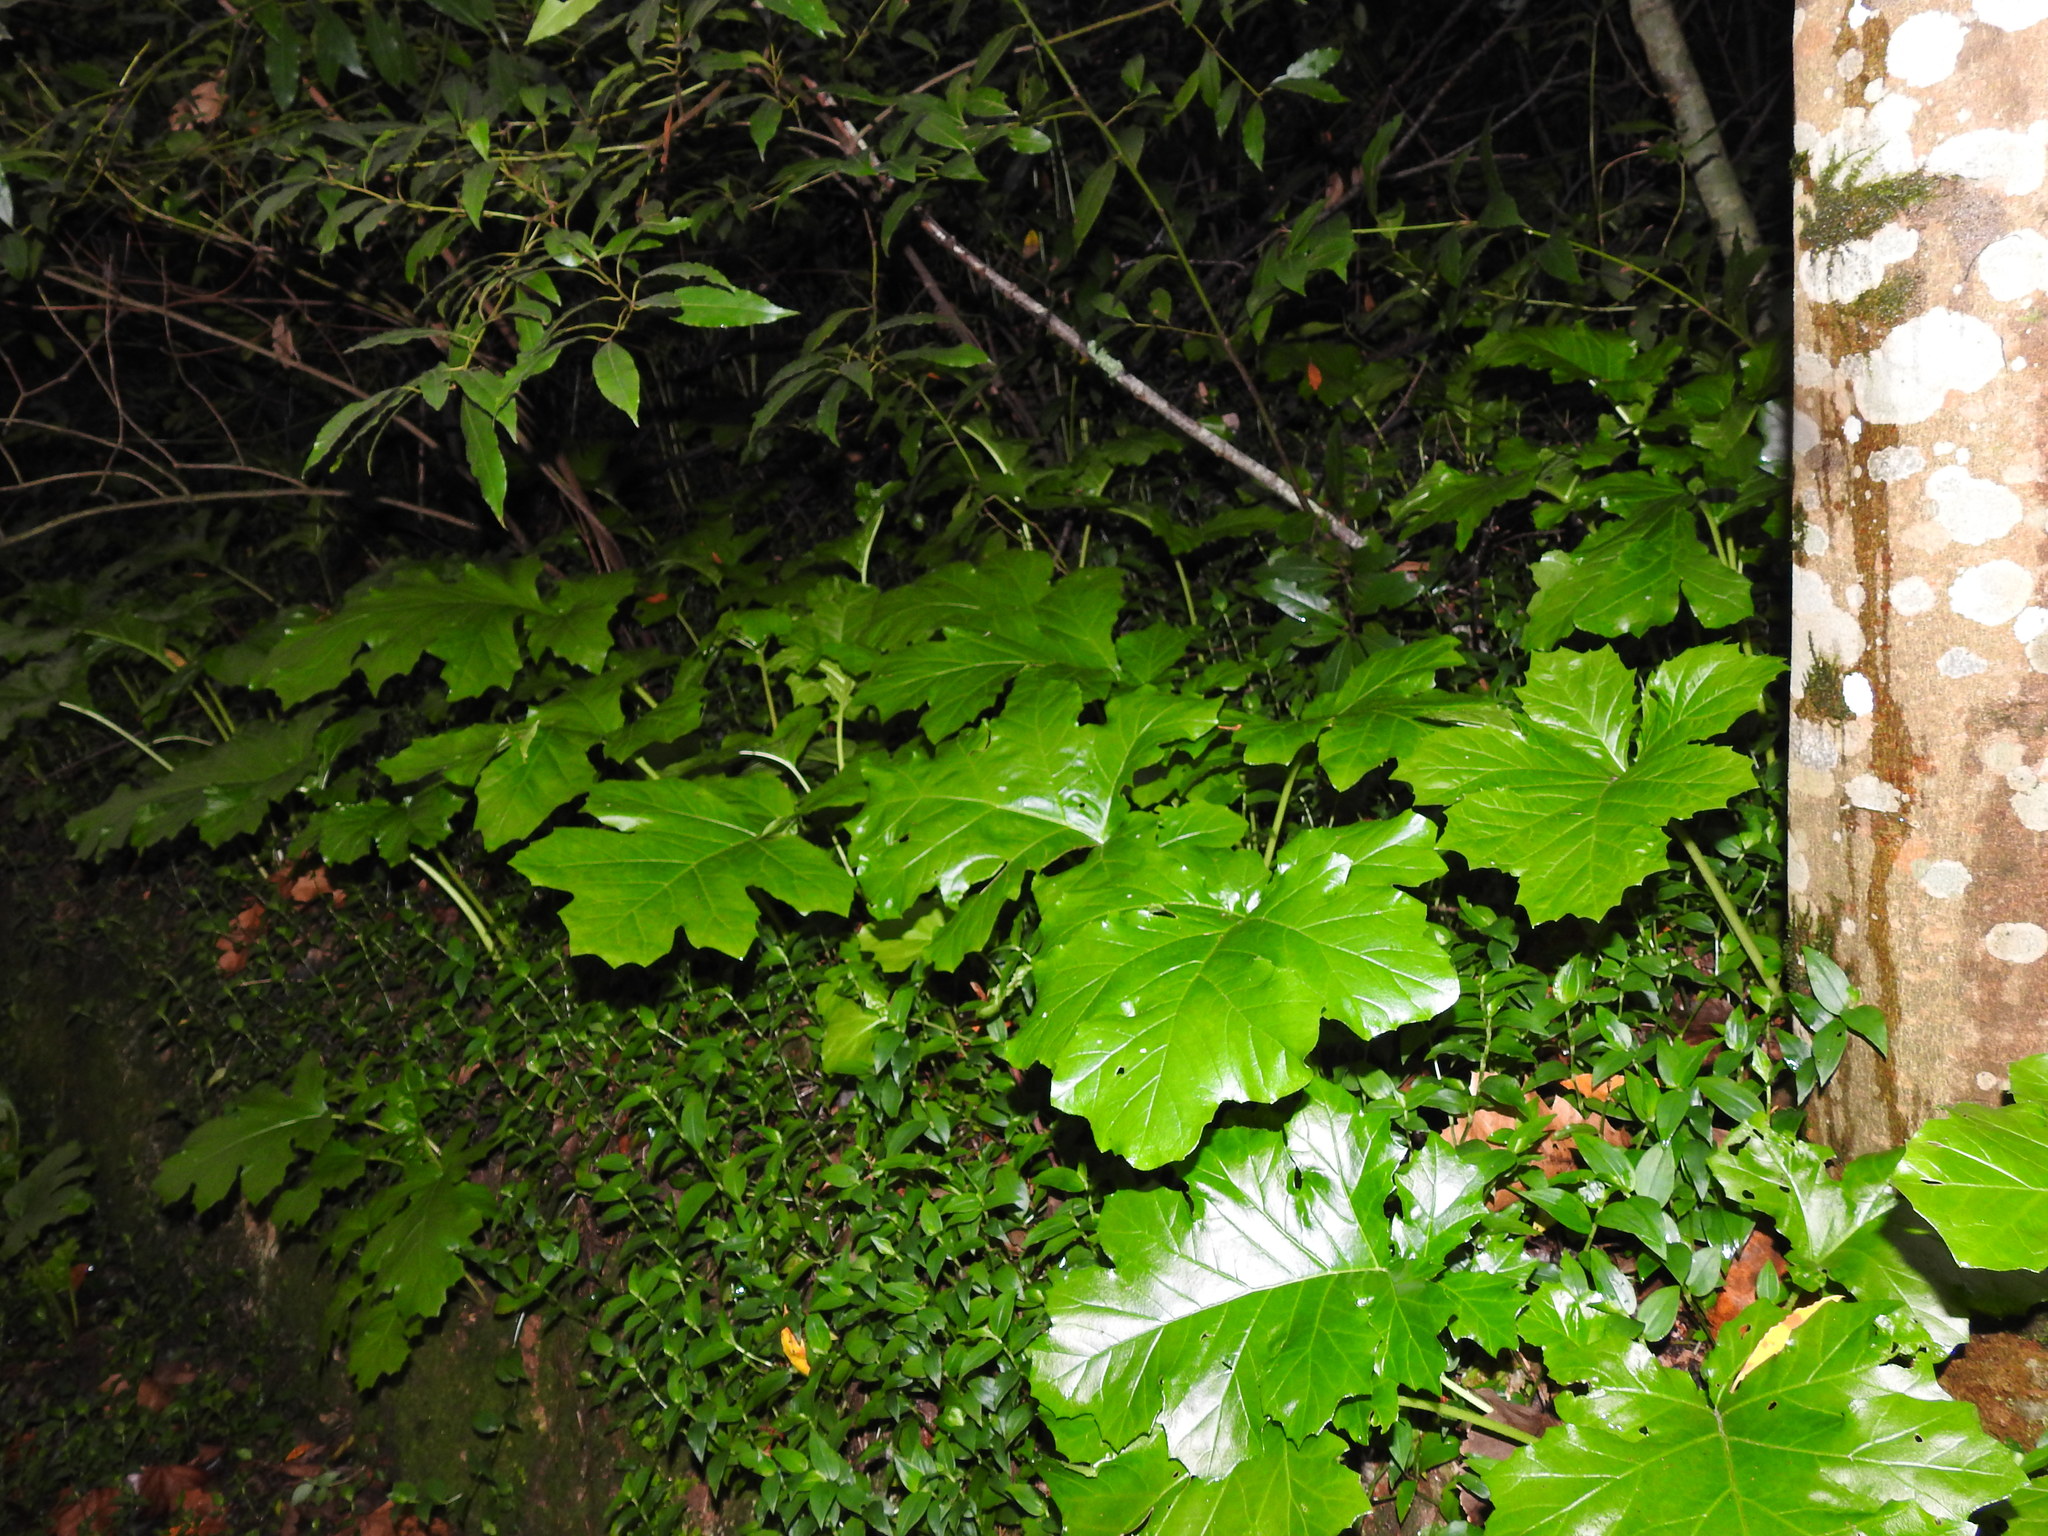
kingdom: Plantae
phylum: Tracheophyta
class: Magnoliopsida
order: Lamiales
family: Acanthaceae
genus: Acanthus
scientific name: Acanthus mollis
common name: Bear's-breech
